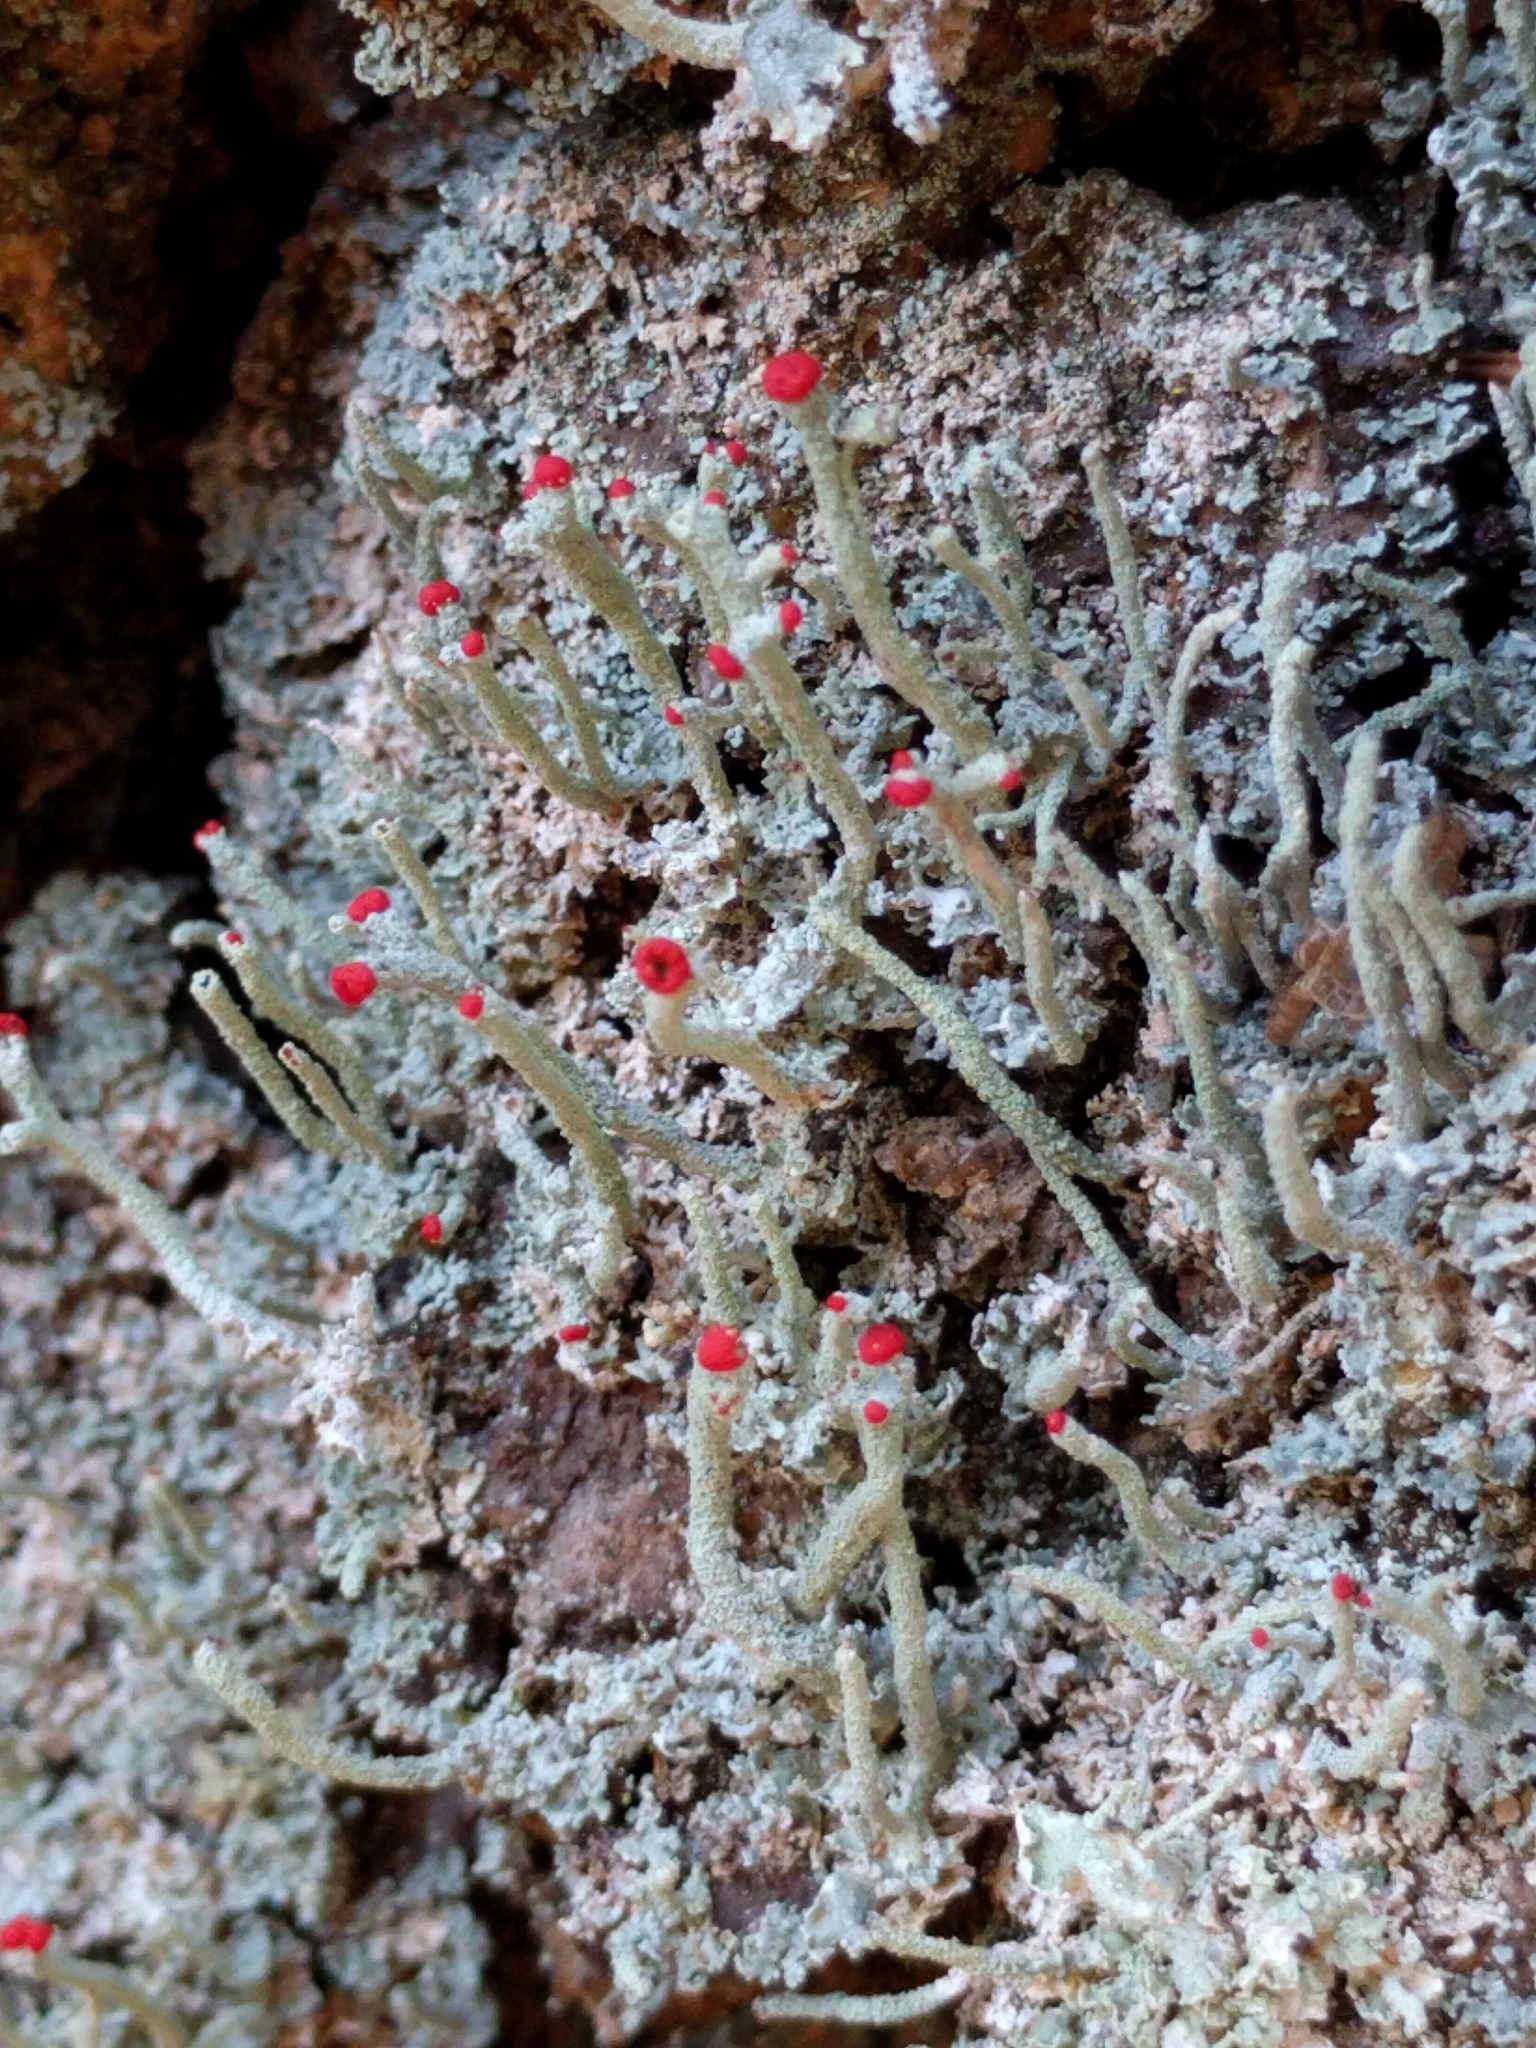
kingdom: Fungi
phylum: Ascomycota
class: Lecanoromycetes
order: Lecanorales
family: Cladoniaceae
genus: Cladonia
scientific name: Cladonia macilenta
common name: Lipstick powderhorn
